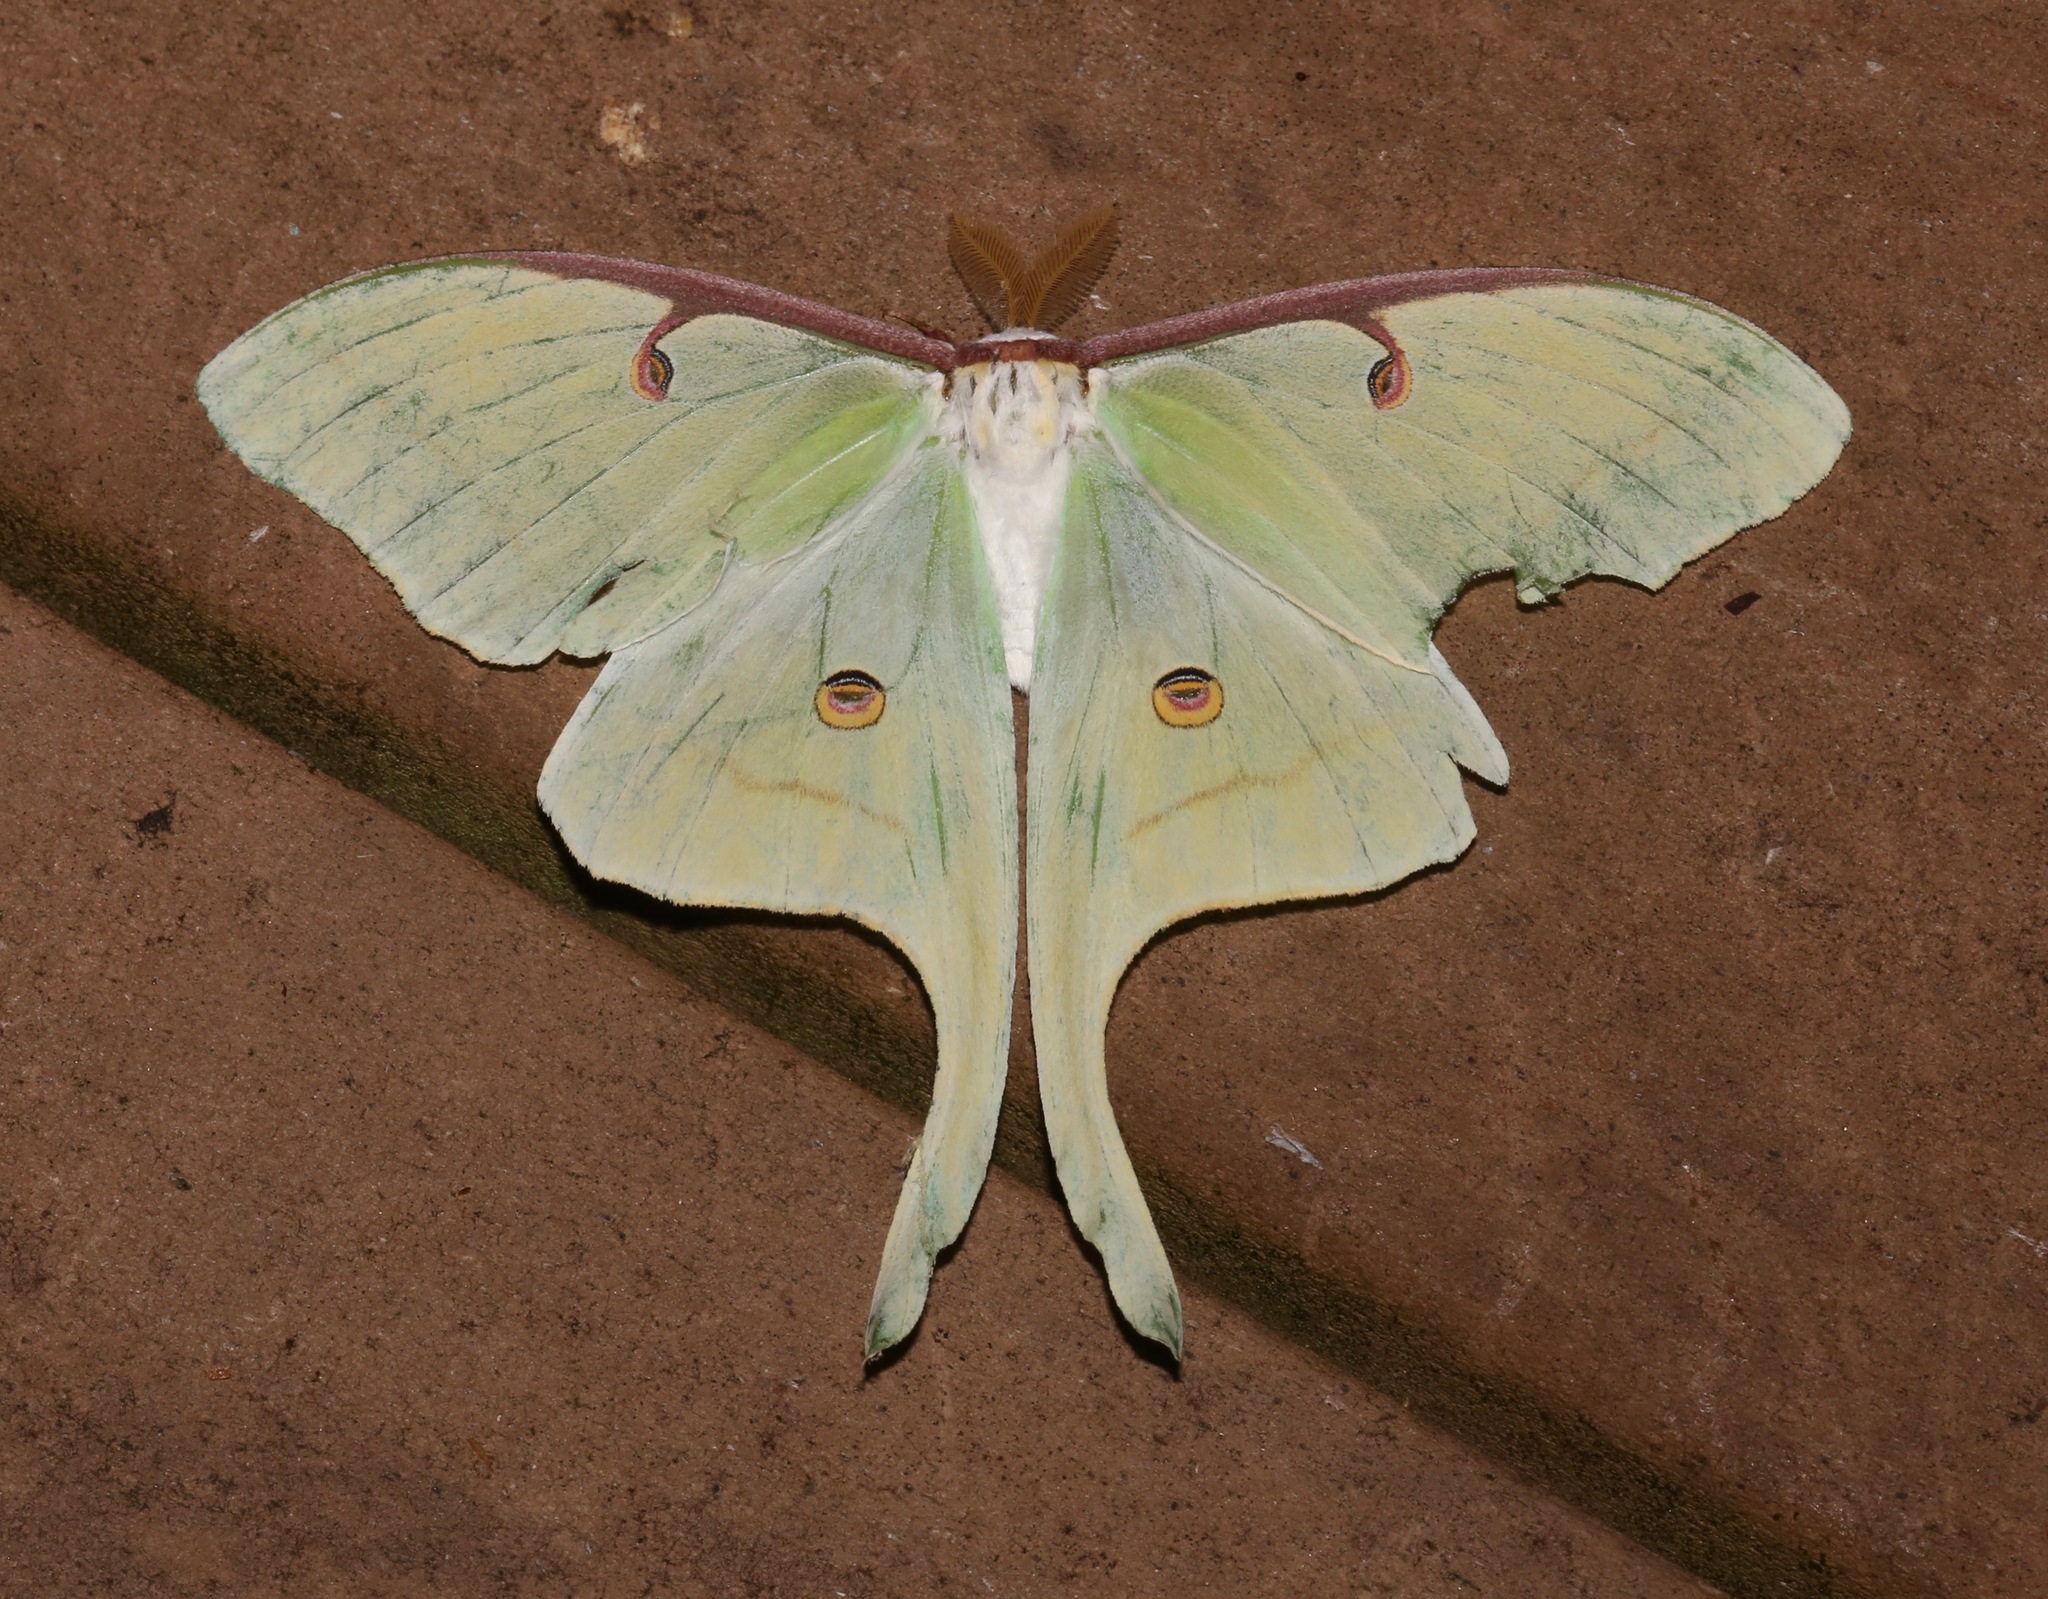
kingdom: Animalia
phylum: Arthropoda
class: Insecta
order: Lepidoptera
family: Saturniidae
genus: Actias
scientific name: Actias luna
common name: Luna moth
